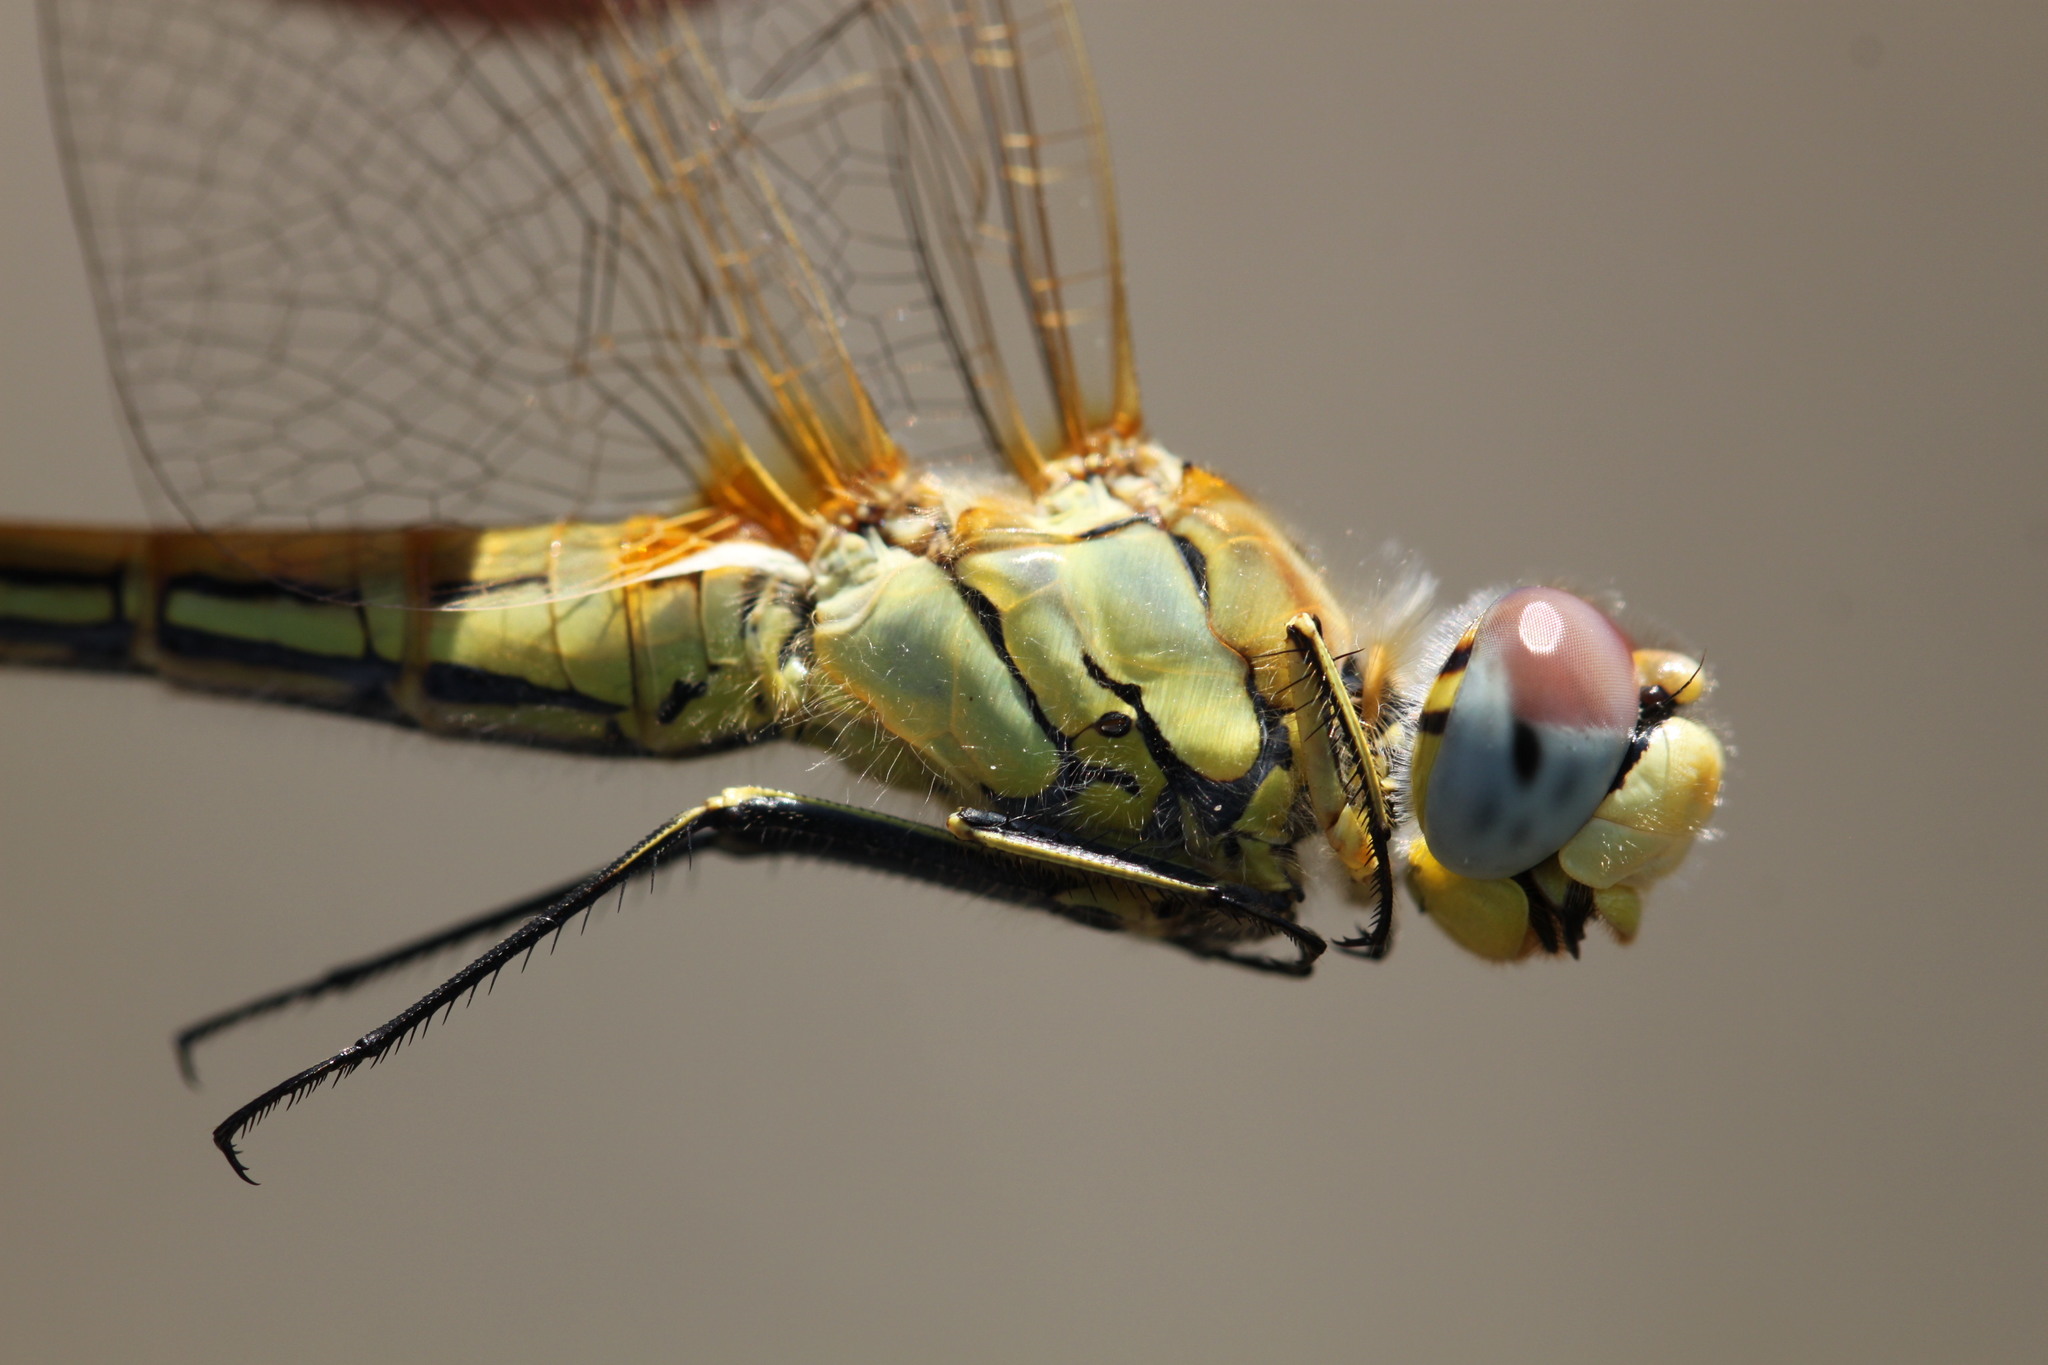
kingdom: Animalia
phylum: Arthropoda
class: Insecta
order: Odonata
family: Libellulidae
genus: Sympetrum
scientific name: Sympetrum fonscolombii
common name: Red-veined darter
